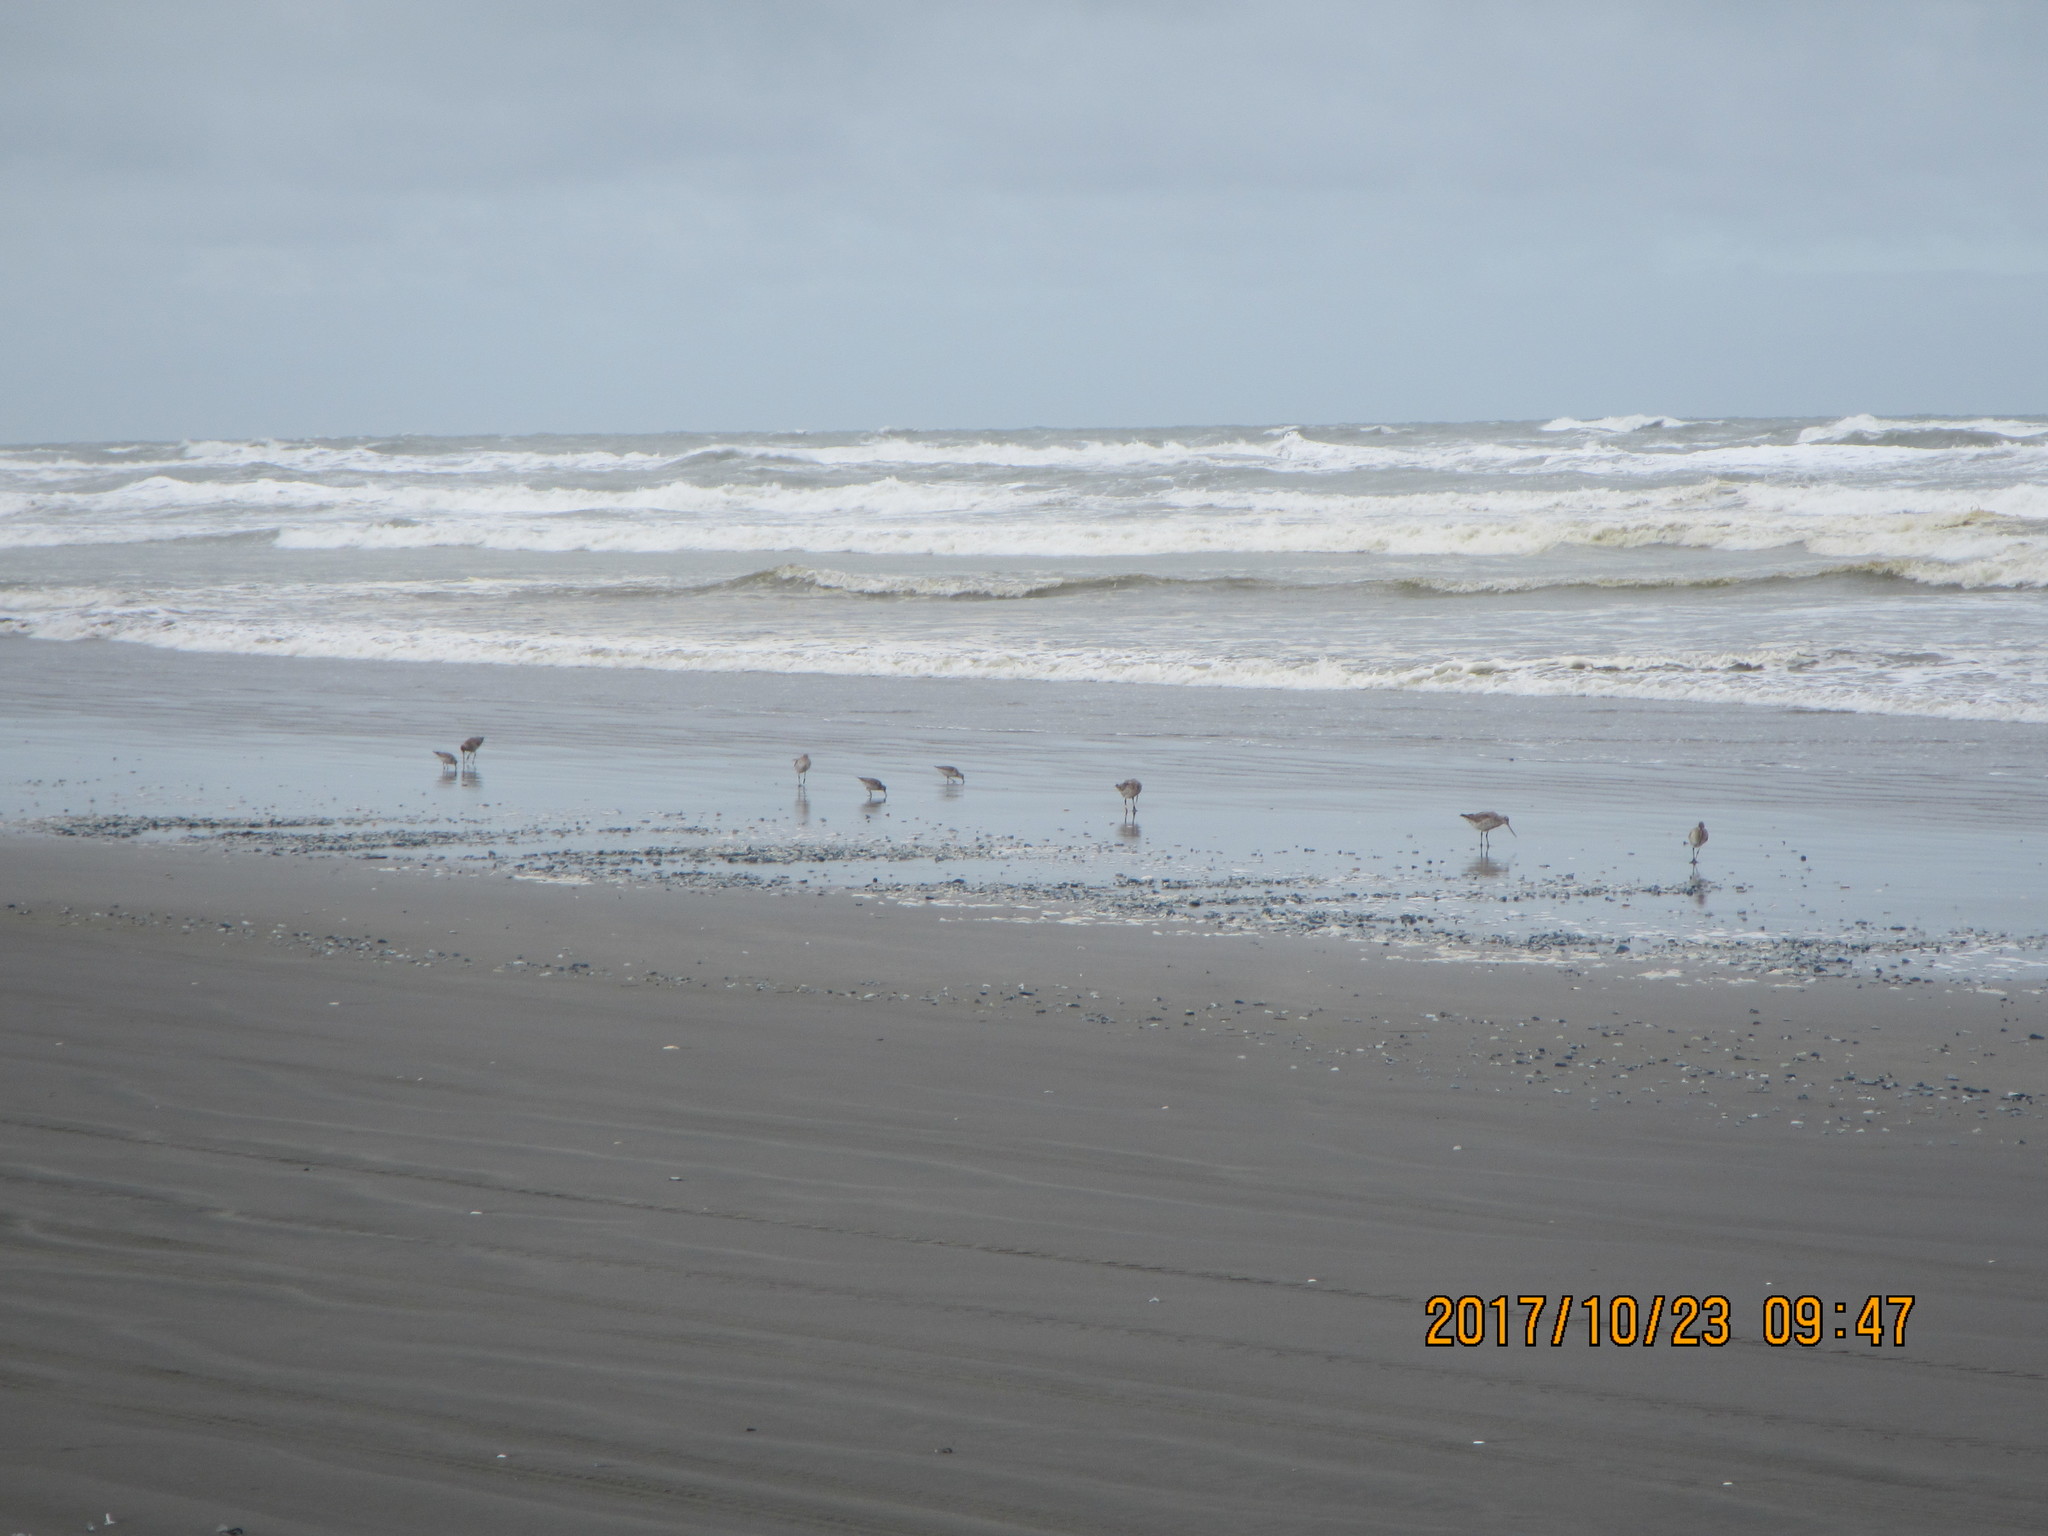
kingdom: Animalia
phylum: Chordata
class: Aves
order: Charadriiformes
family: Scolopacidae
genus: Limosa
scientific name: Limosa lapponica
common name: Bar-tailed godwit
